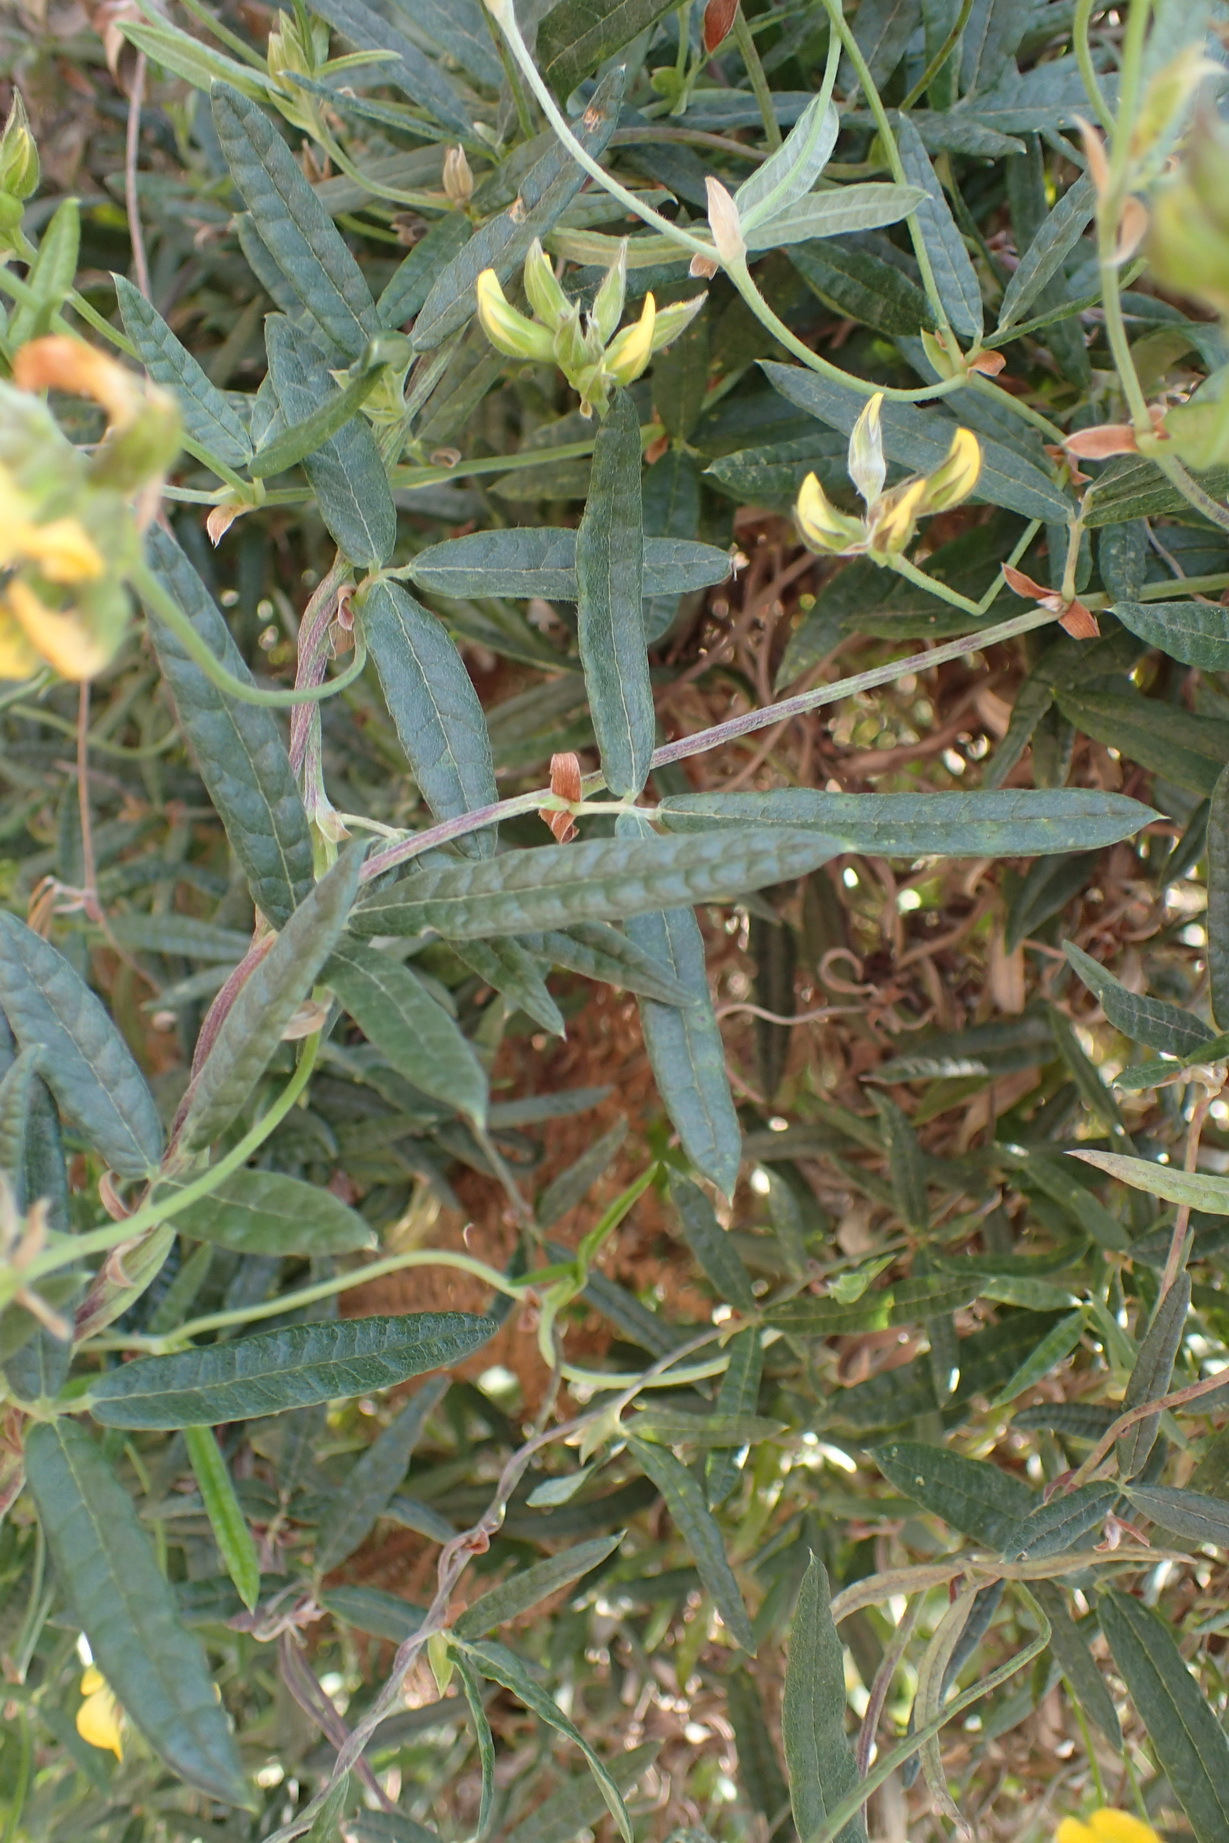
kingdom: Plantae
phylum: Tracheophyta
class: Magnoliopsida
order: Fabales
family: Fabaceae
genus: Rhynchosia
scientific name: Rhynchosia chrysoscias
